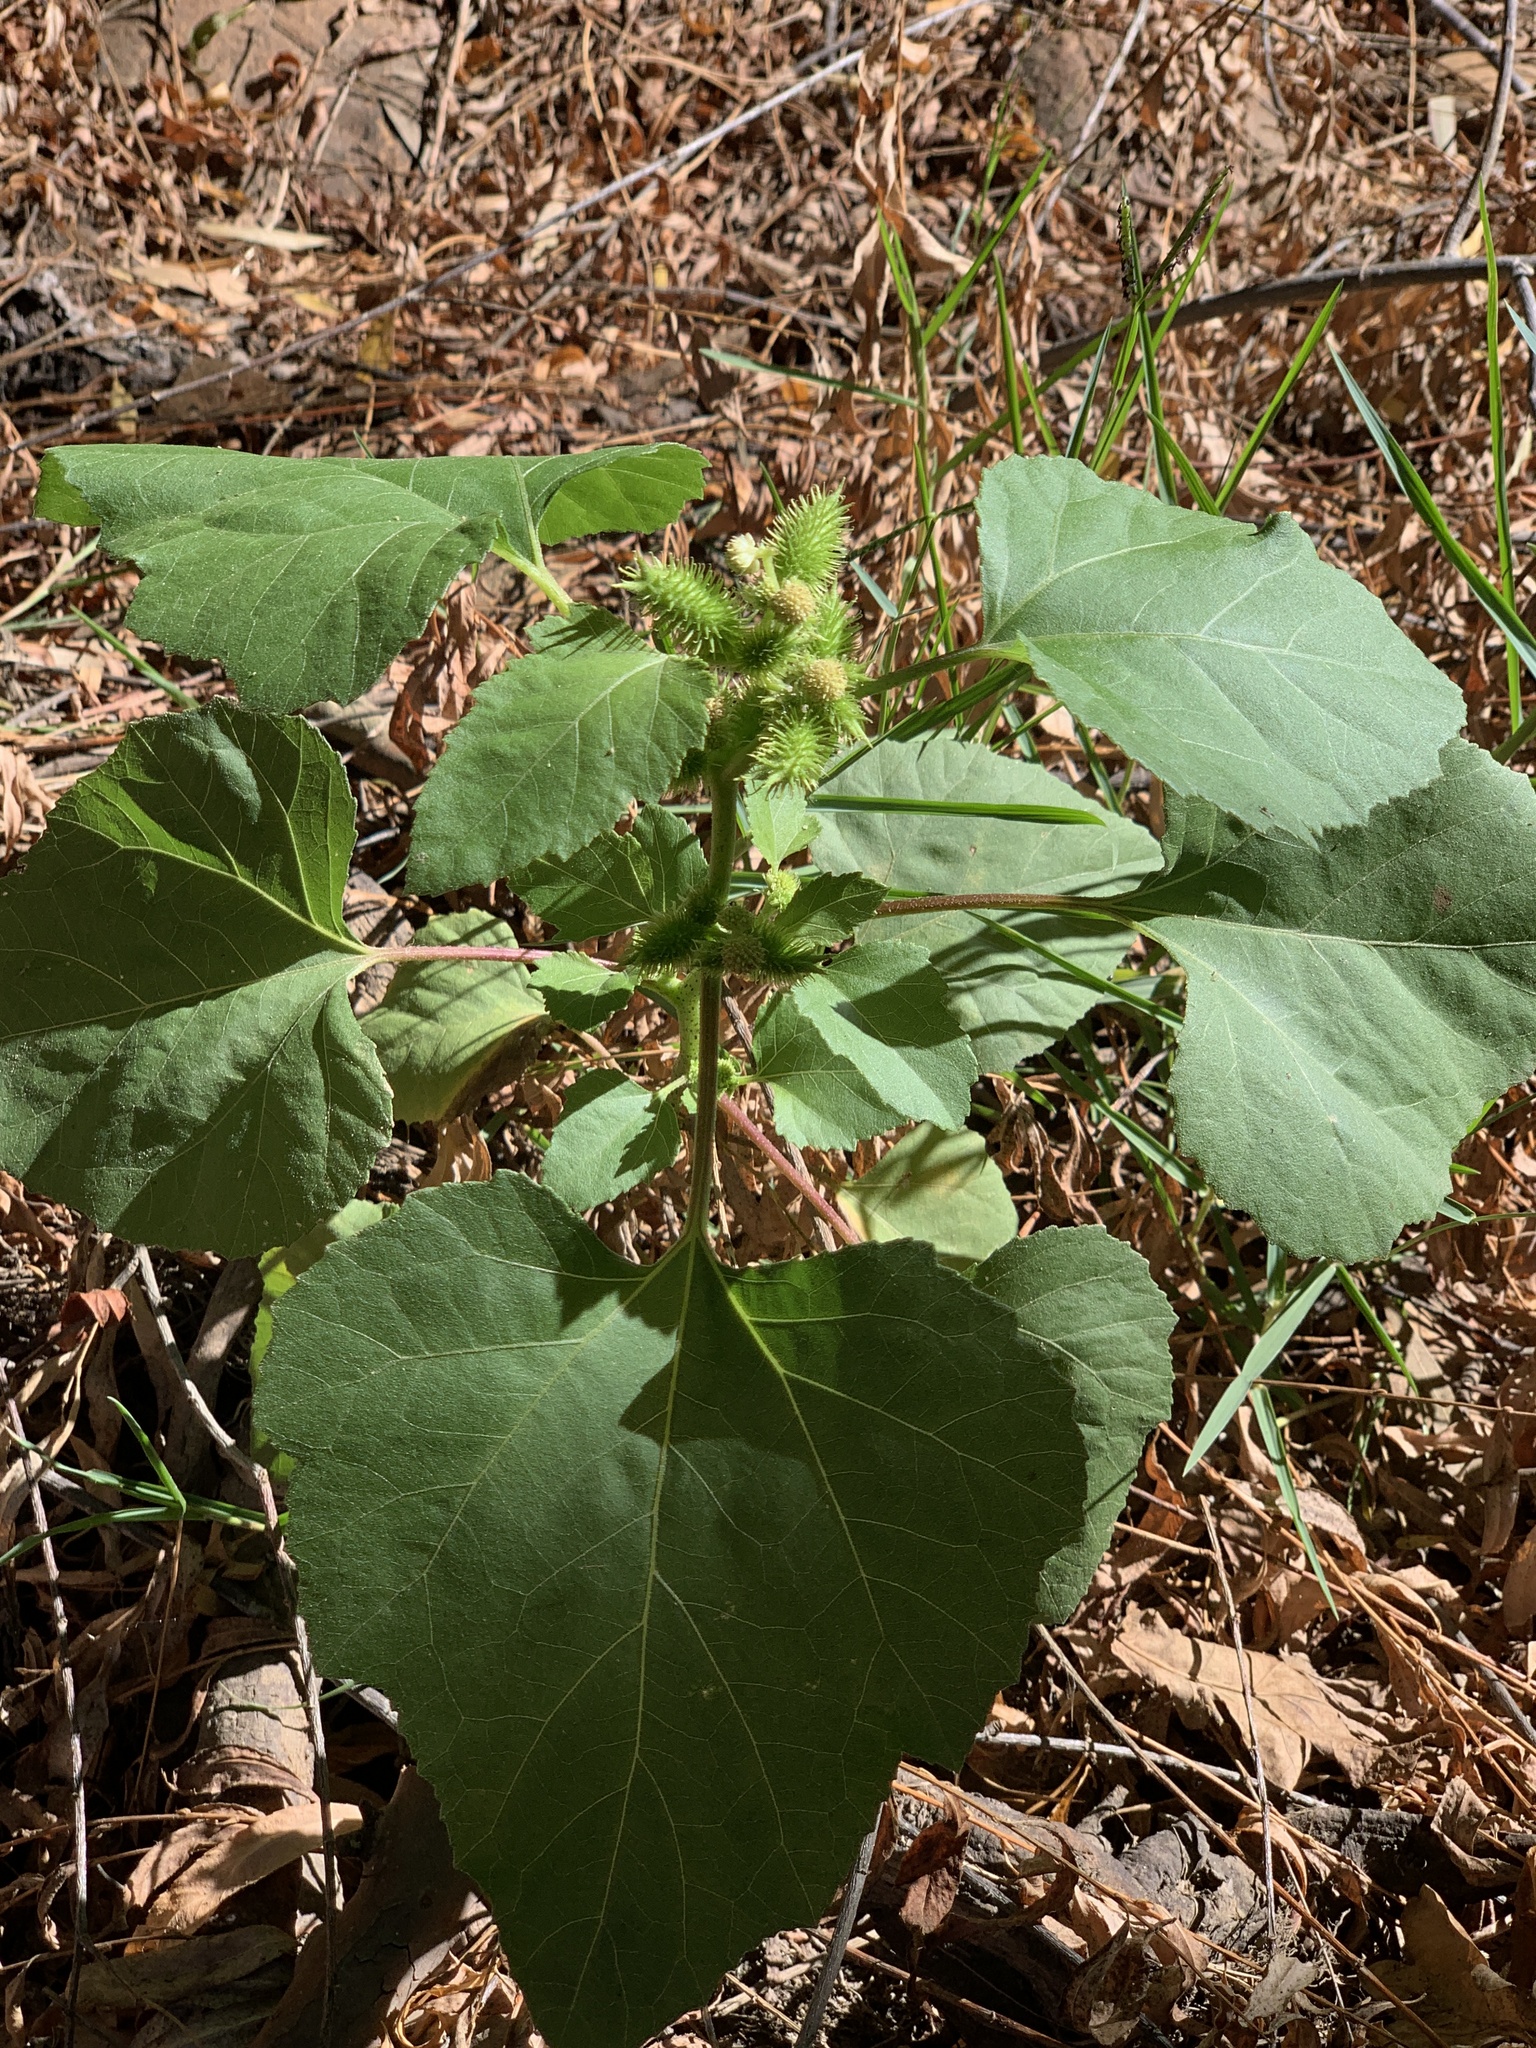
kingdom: Plantae
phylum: Tracheophyta
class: Magnoliopsida
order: Asterales
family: Asteraceae
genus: Xanthium
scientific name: Xanthium strumarium
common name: Rough cocklebur
